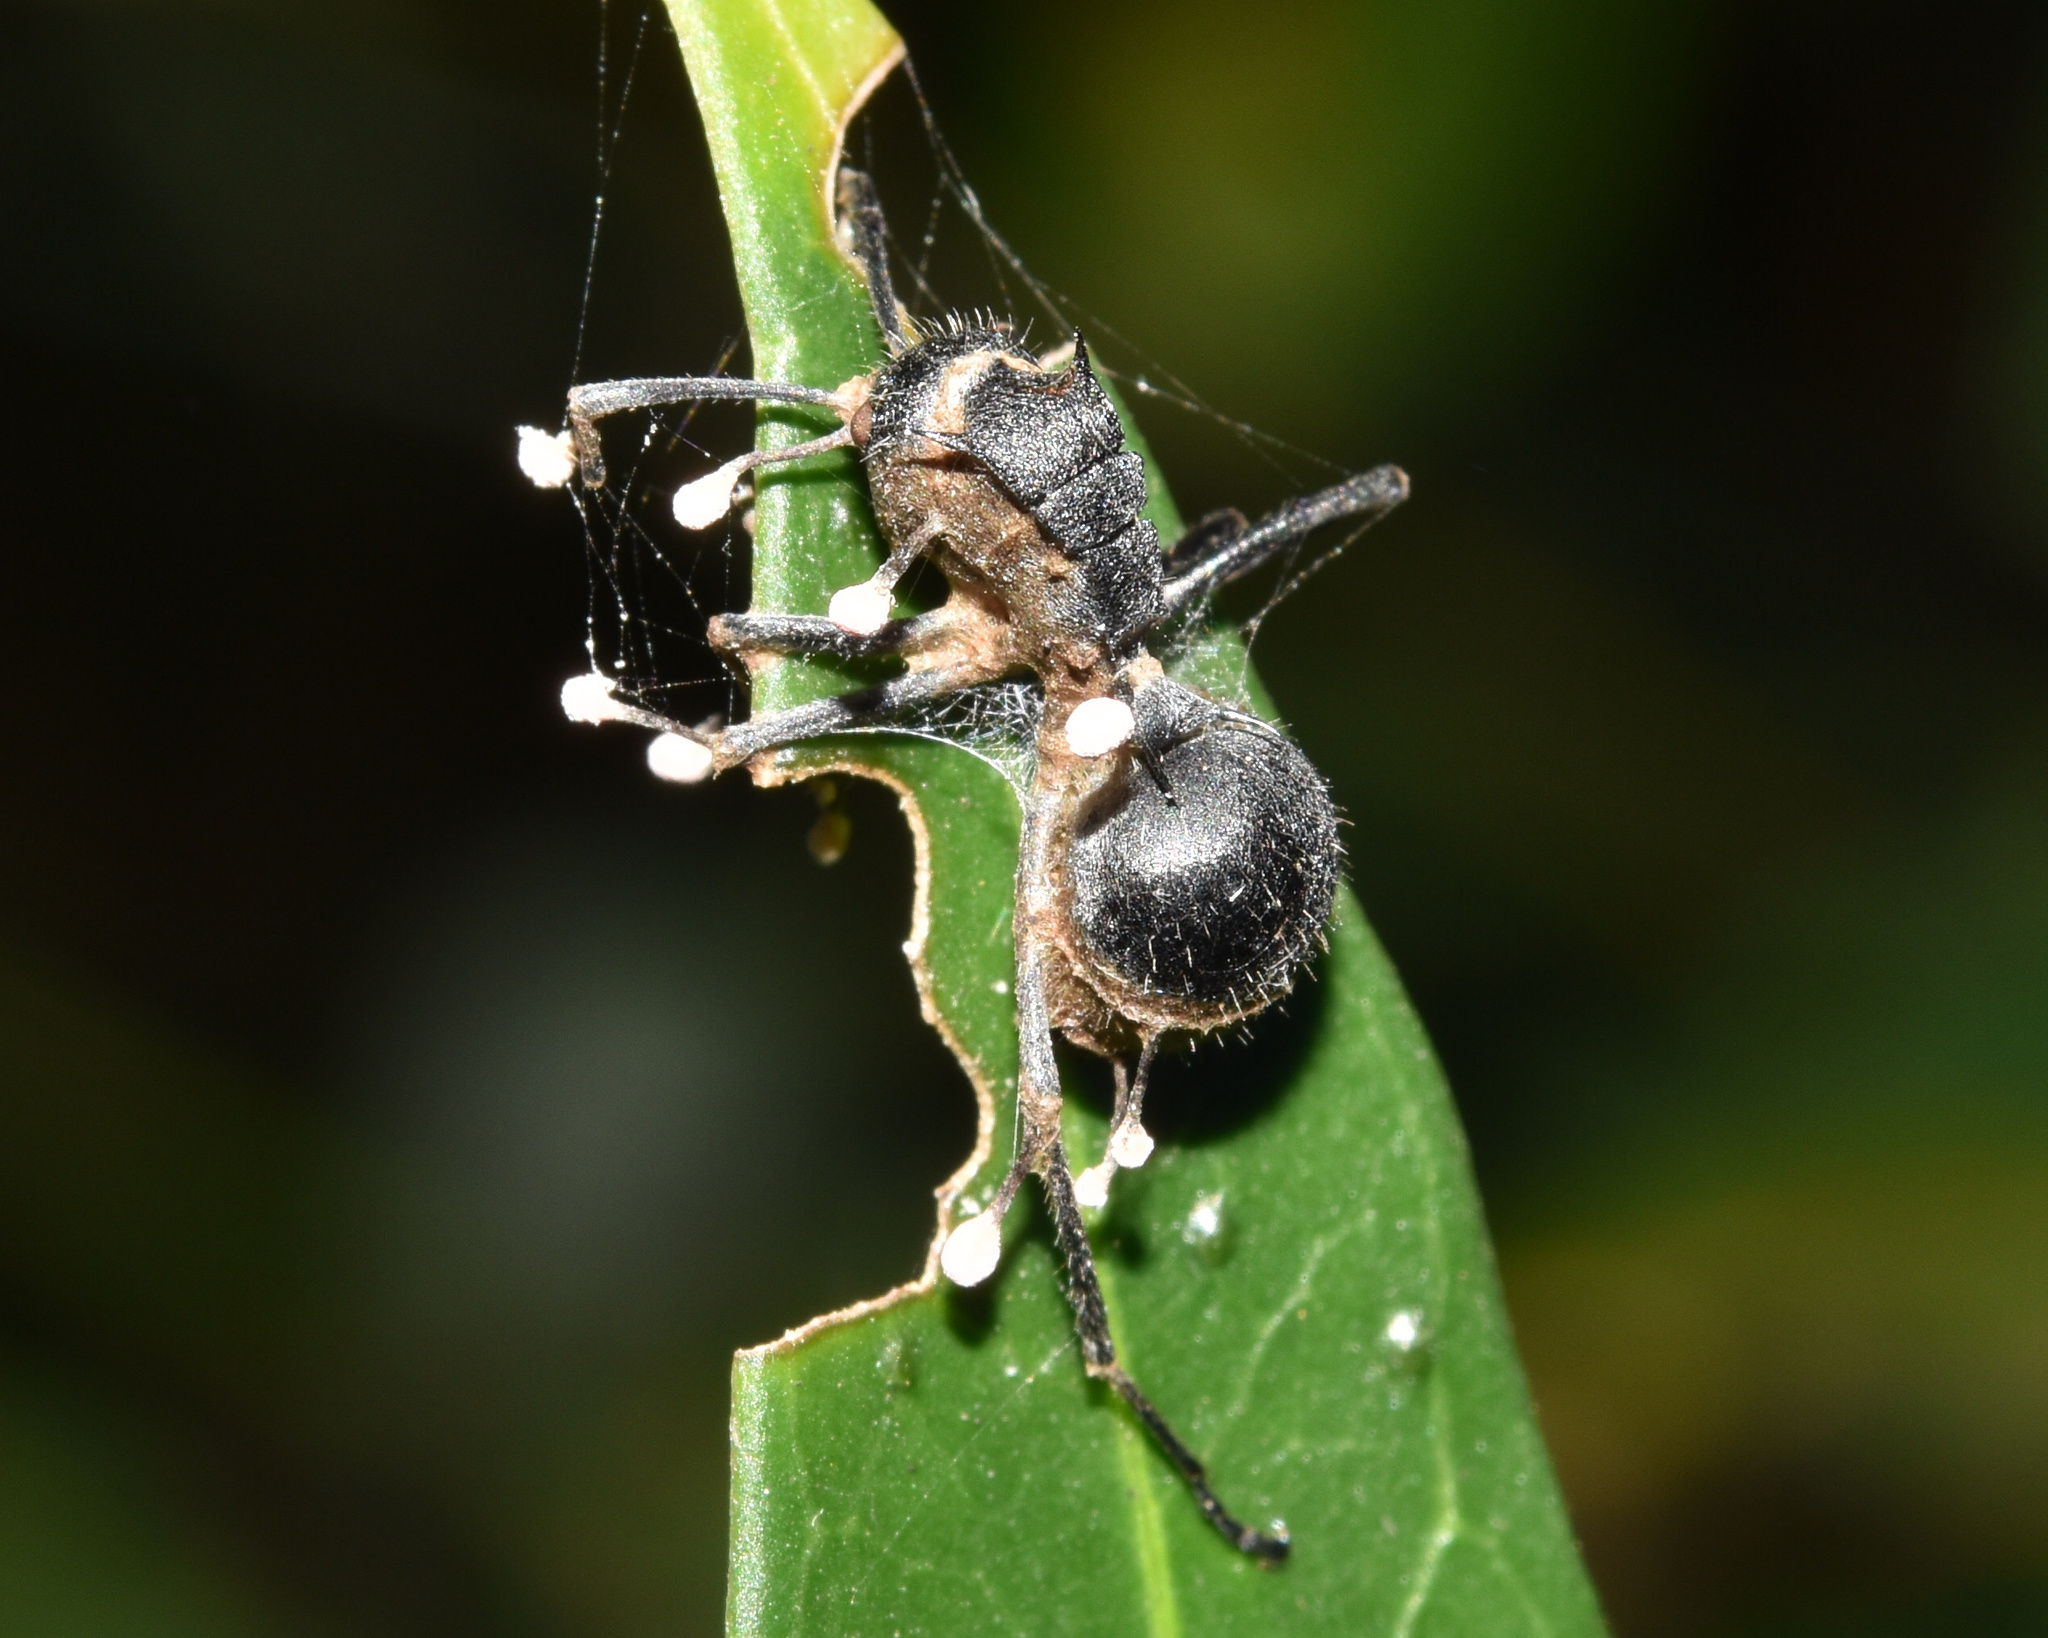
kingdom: Animalia
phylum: Arthropoda
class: Insecta
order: Hymenoptera
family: Formicidae
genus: Polyrhachis
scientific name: Polyrhachis schistacea
